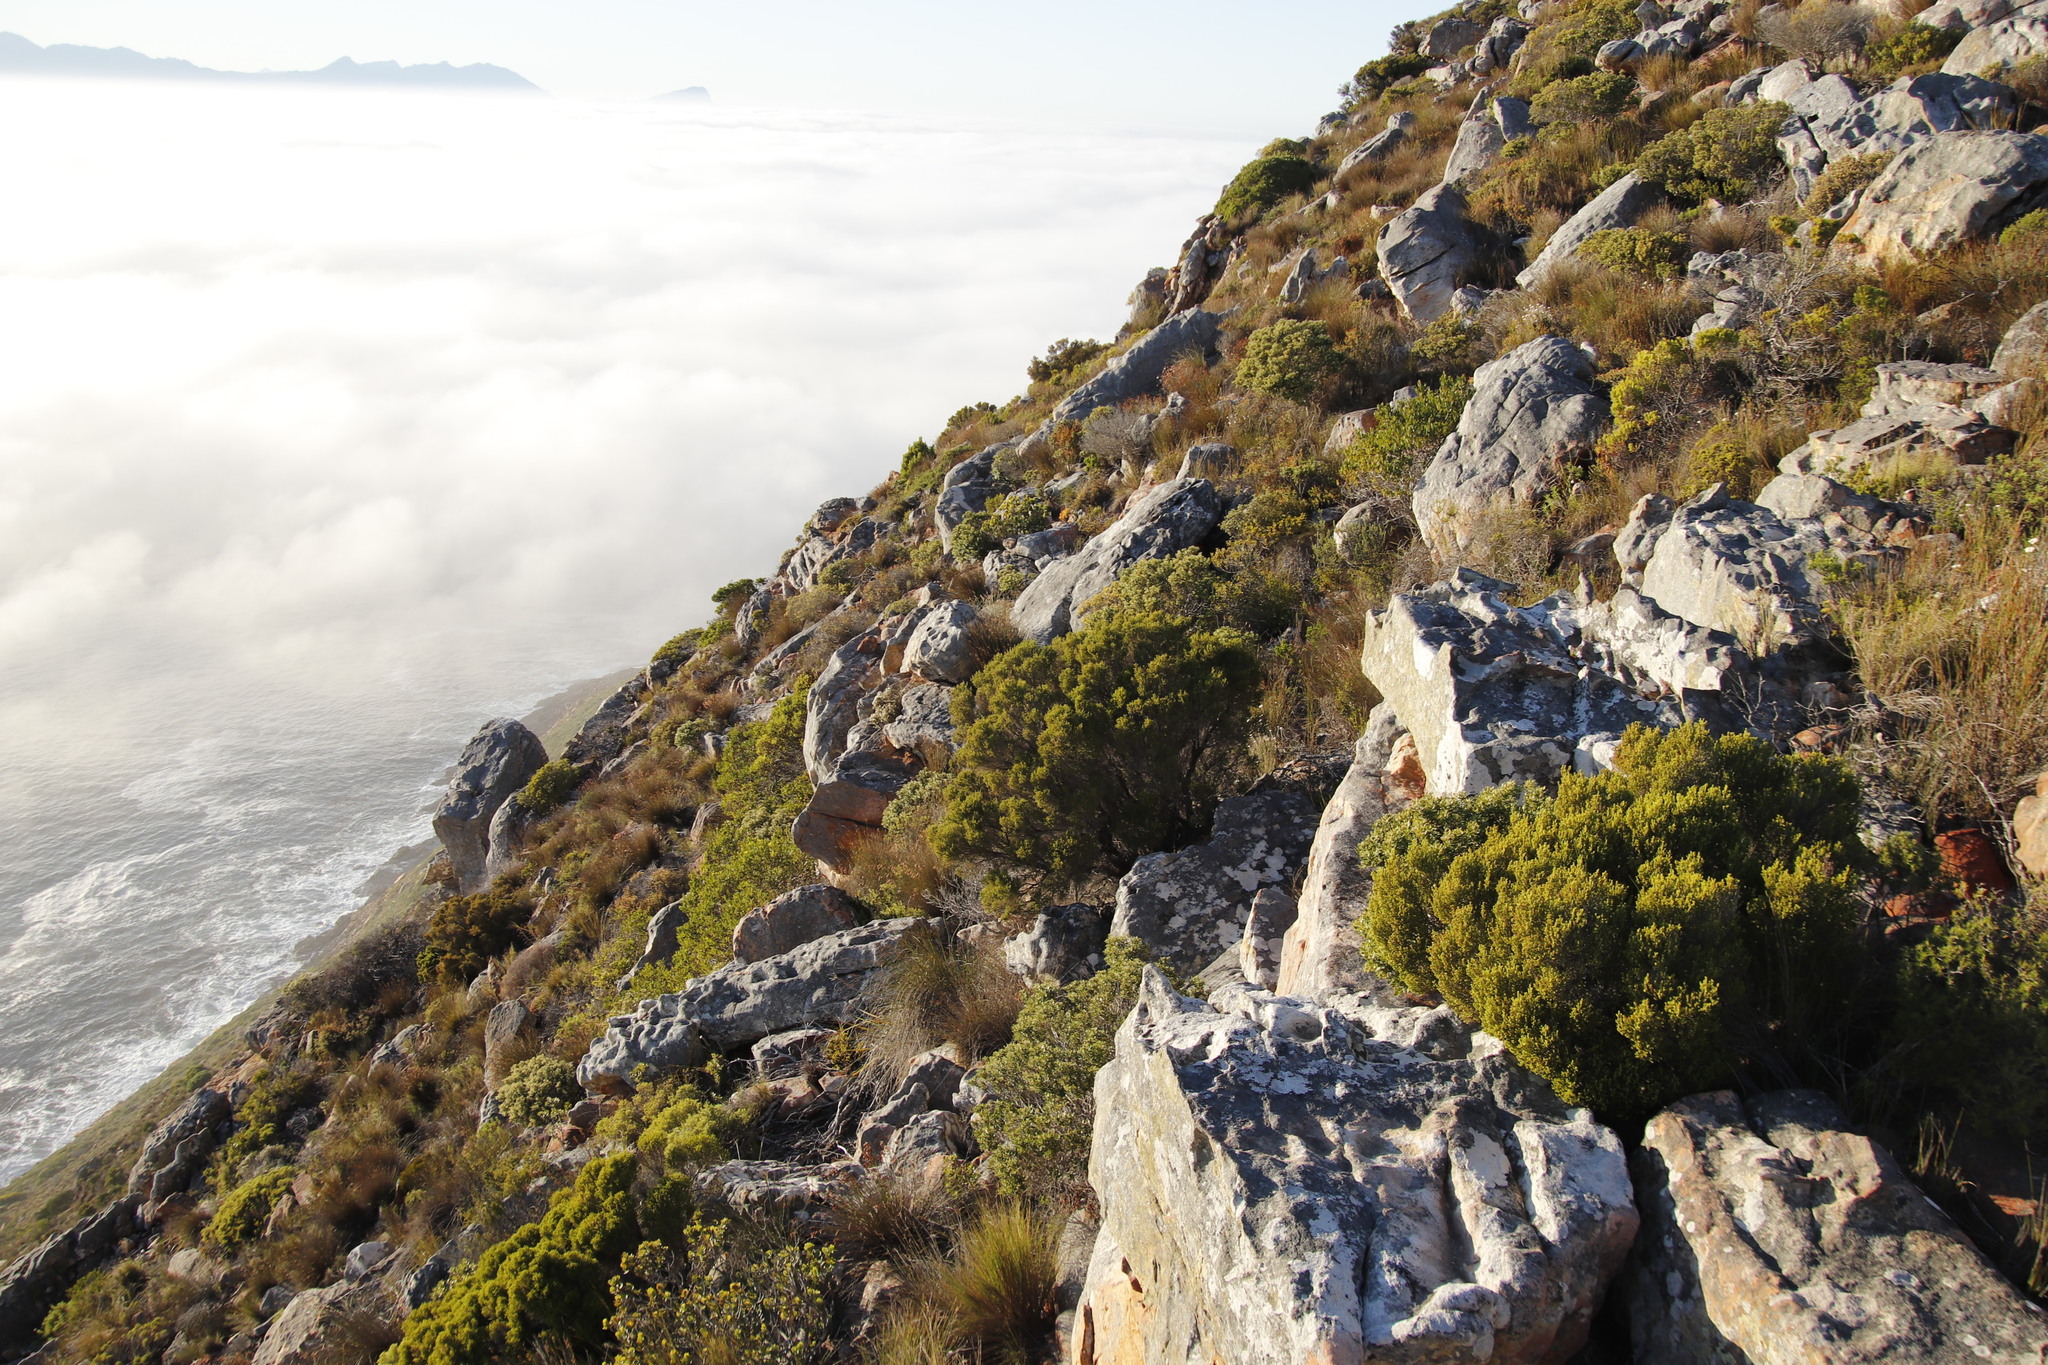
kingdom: Plantae
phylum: Tracheophyta
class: Magnoliopsida
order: Ericales
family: Ericaceae
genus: Erica
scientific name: Erica tristis
